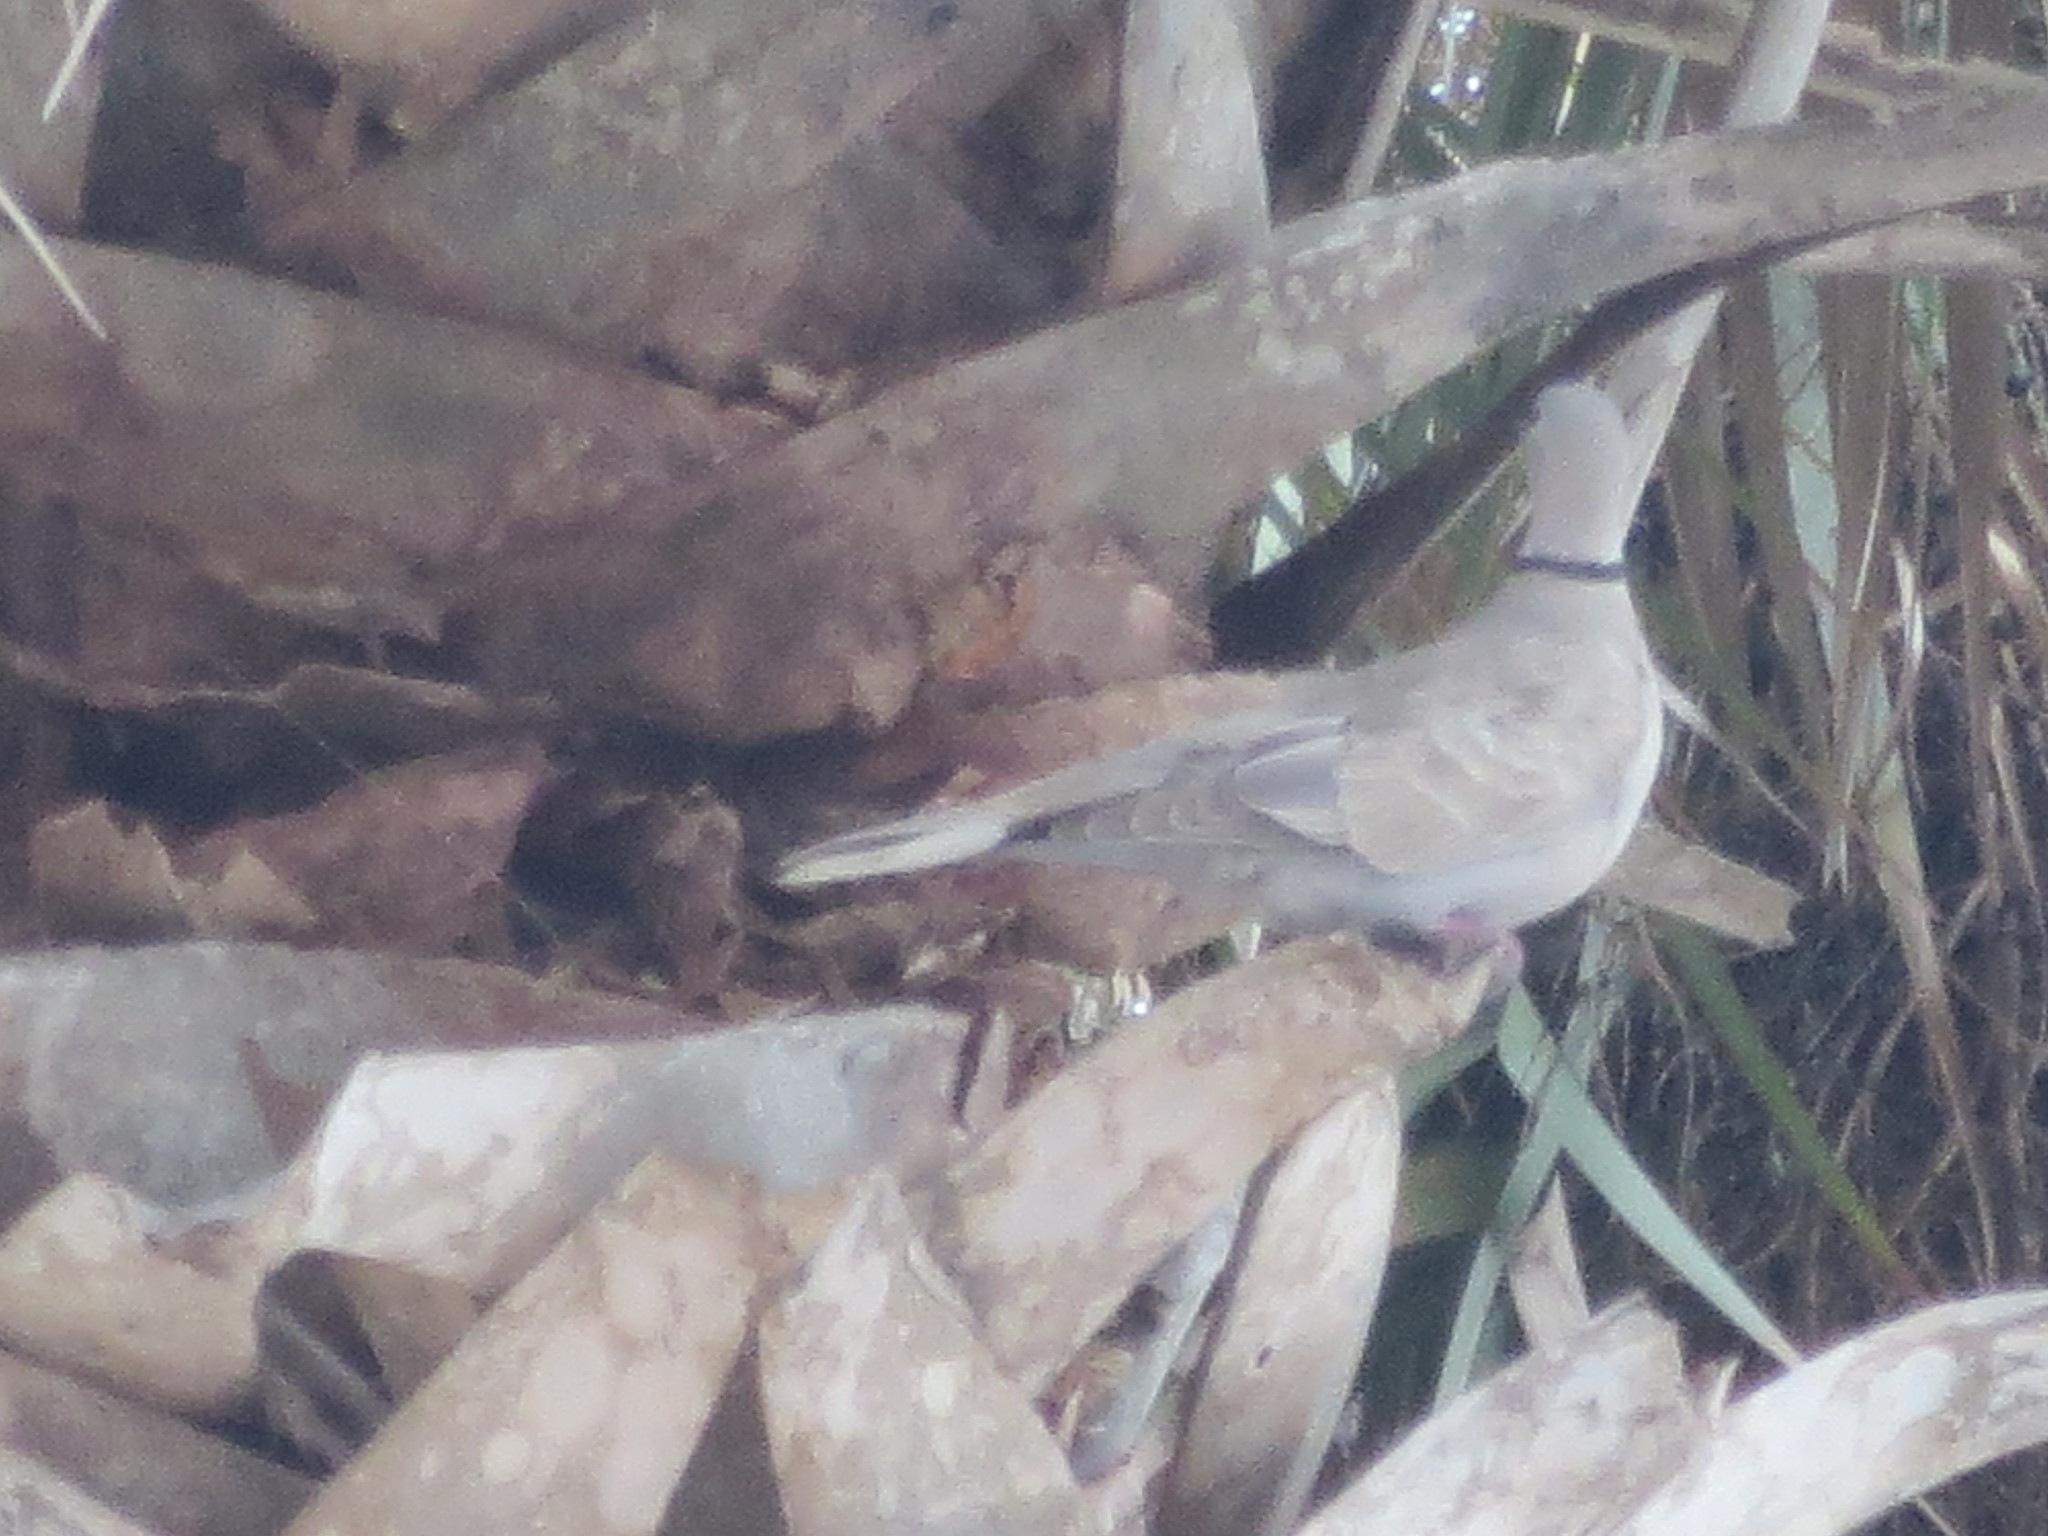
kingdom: Animalia
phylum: Chordata
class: Aves
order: Columbiformes
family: Columbidae
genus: Streptopelia
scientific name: Streptopelia decaocto
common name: Eurasian collared dove
